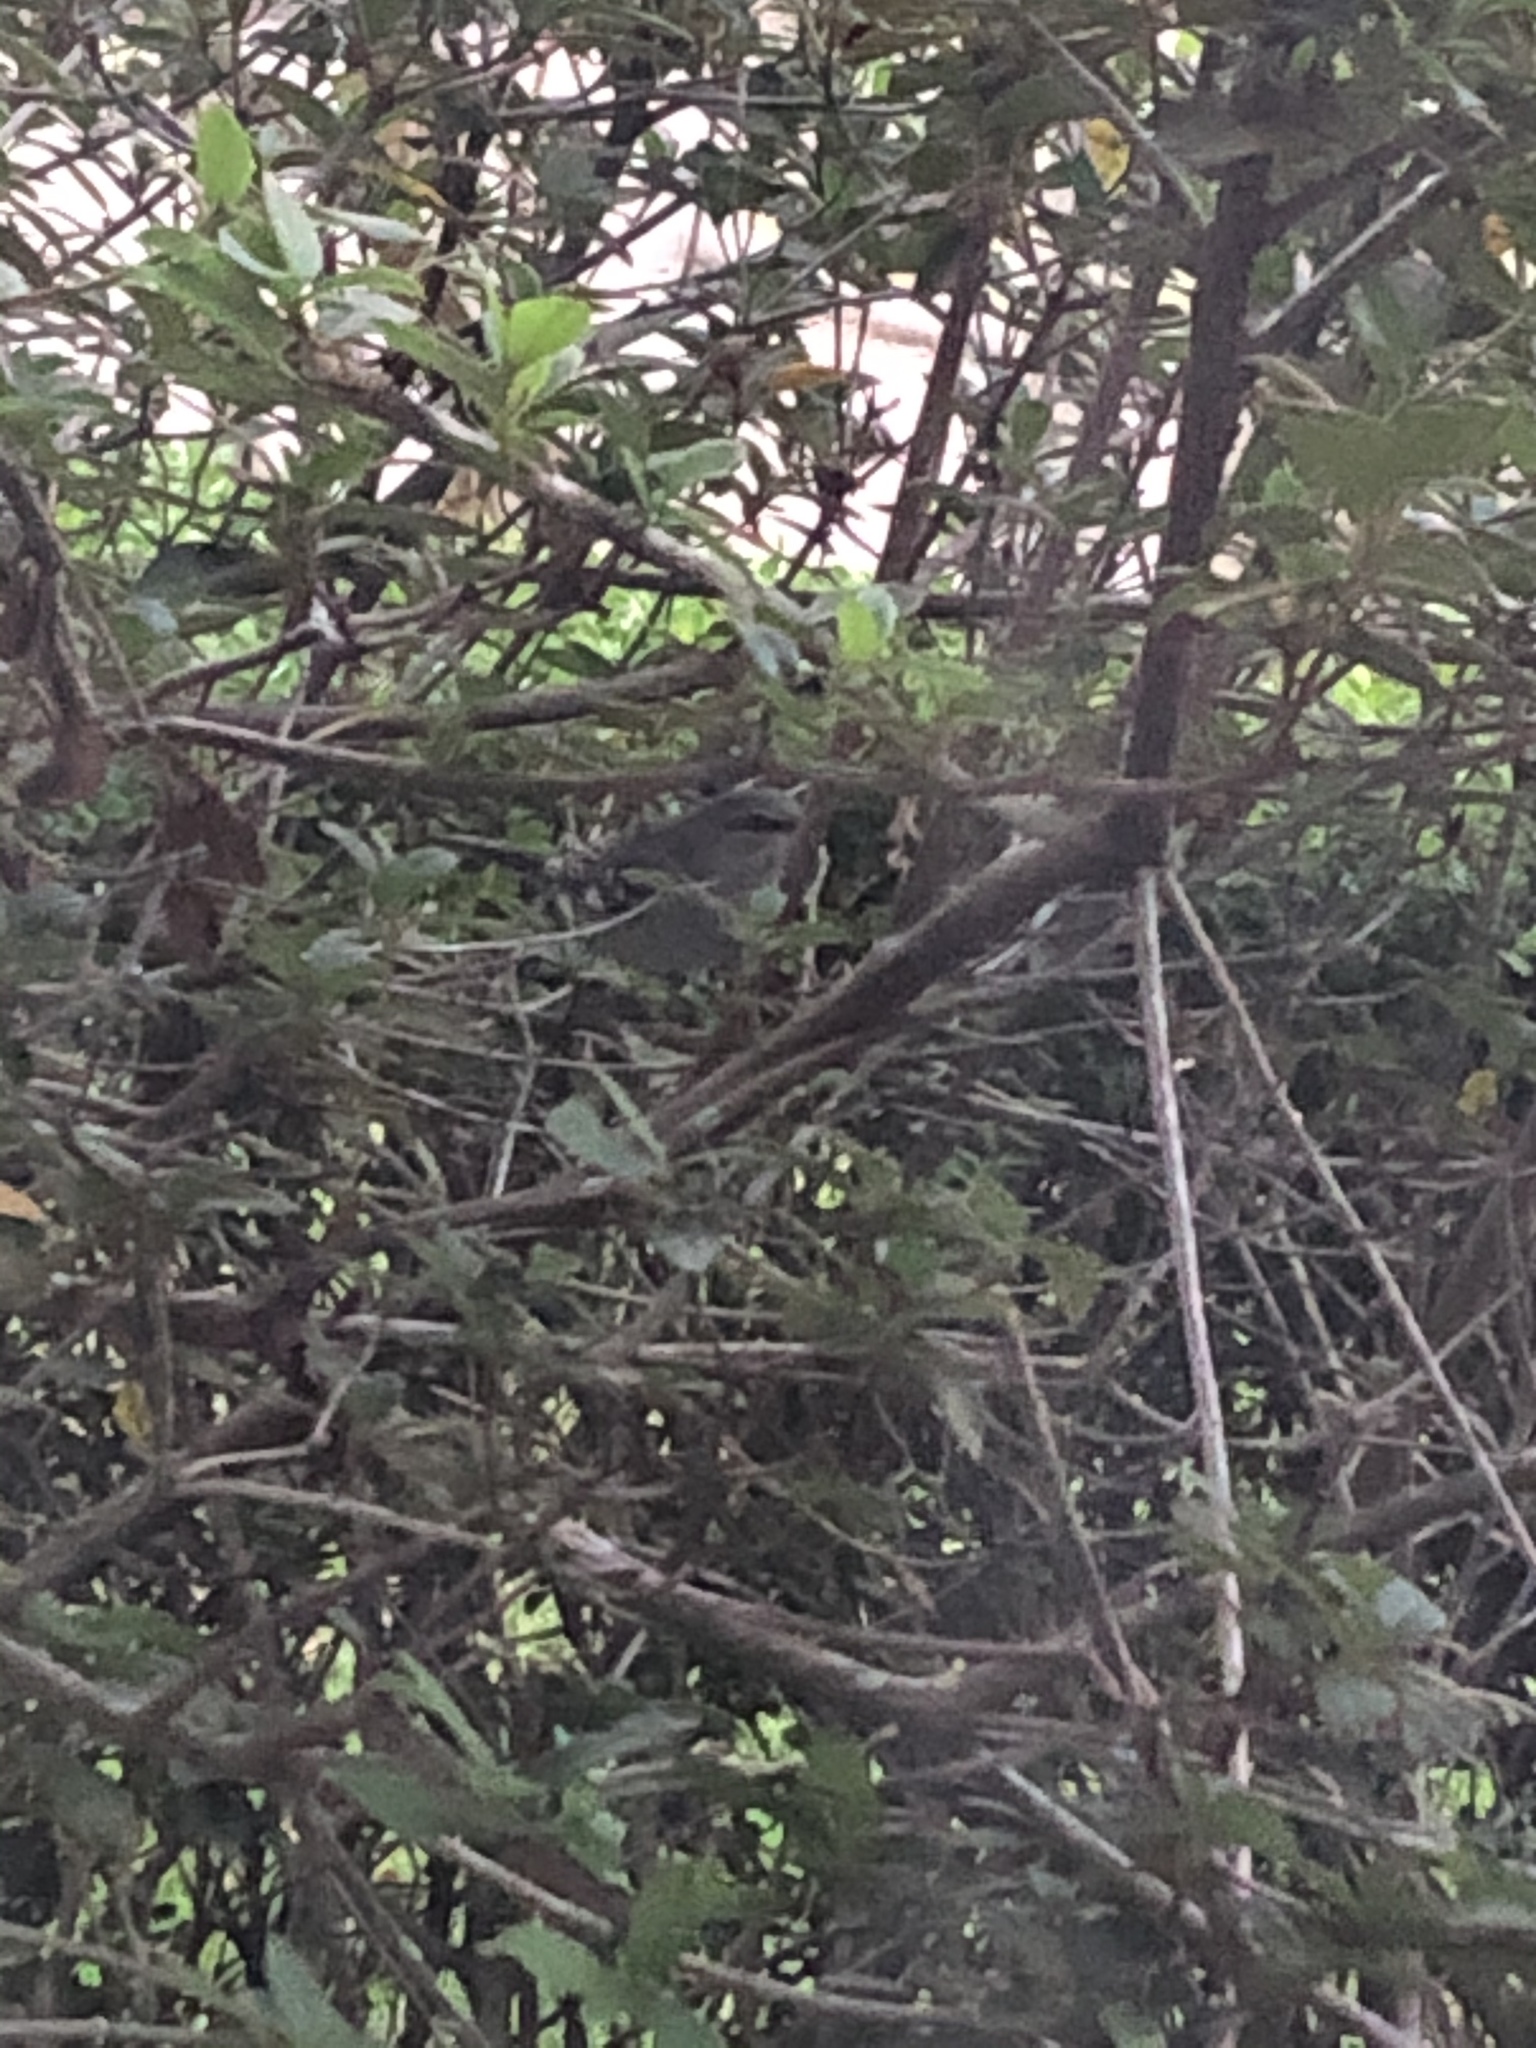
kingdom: Animalia
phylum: Chordata
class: Aves
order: Passeriformes
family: Mimidae
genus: Mimus
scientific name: Mimus polyglottos
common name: Northern mockingbird
